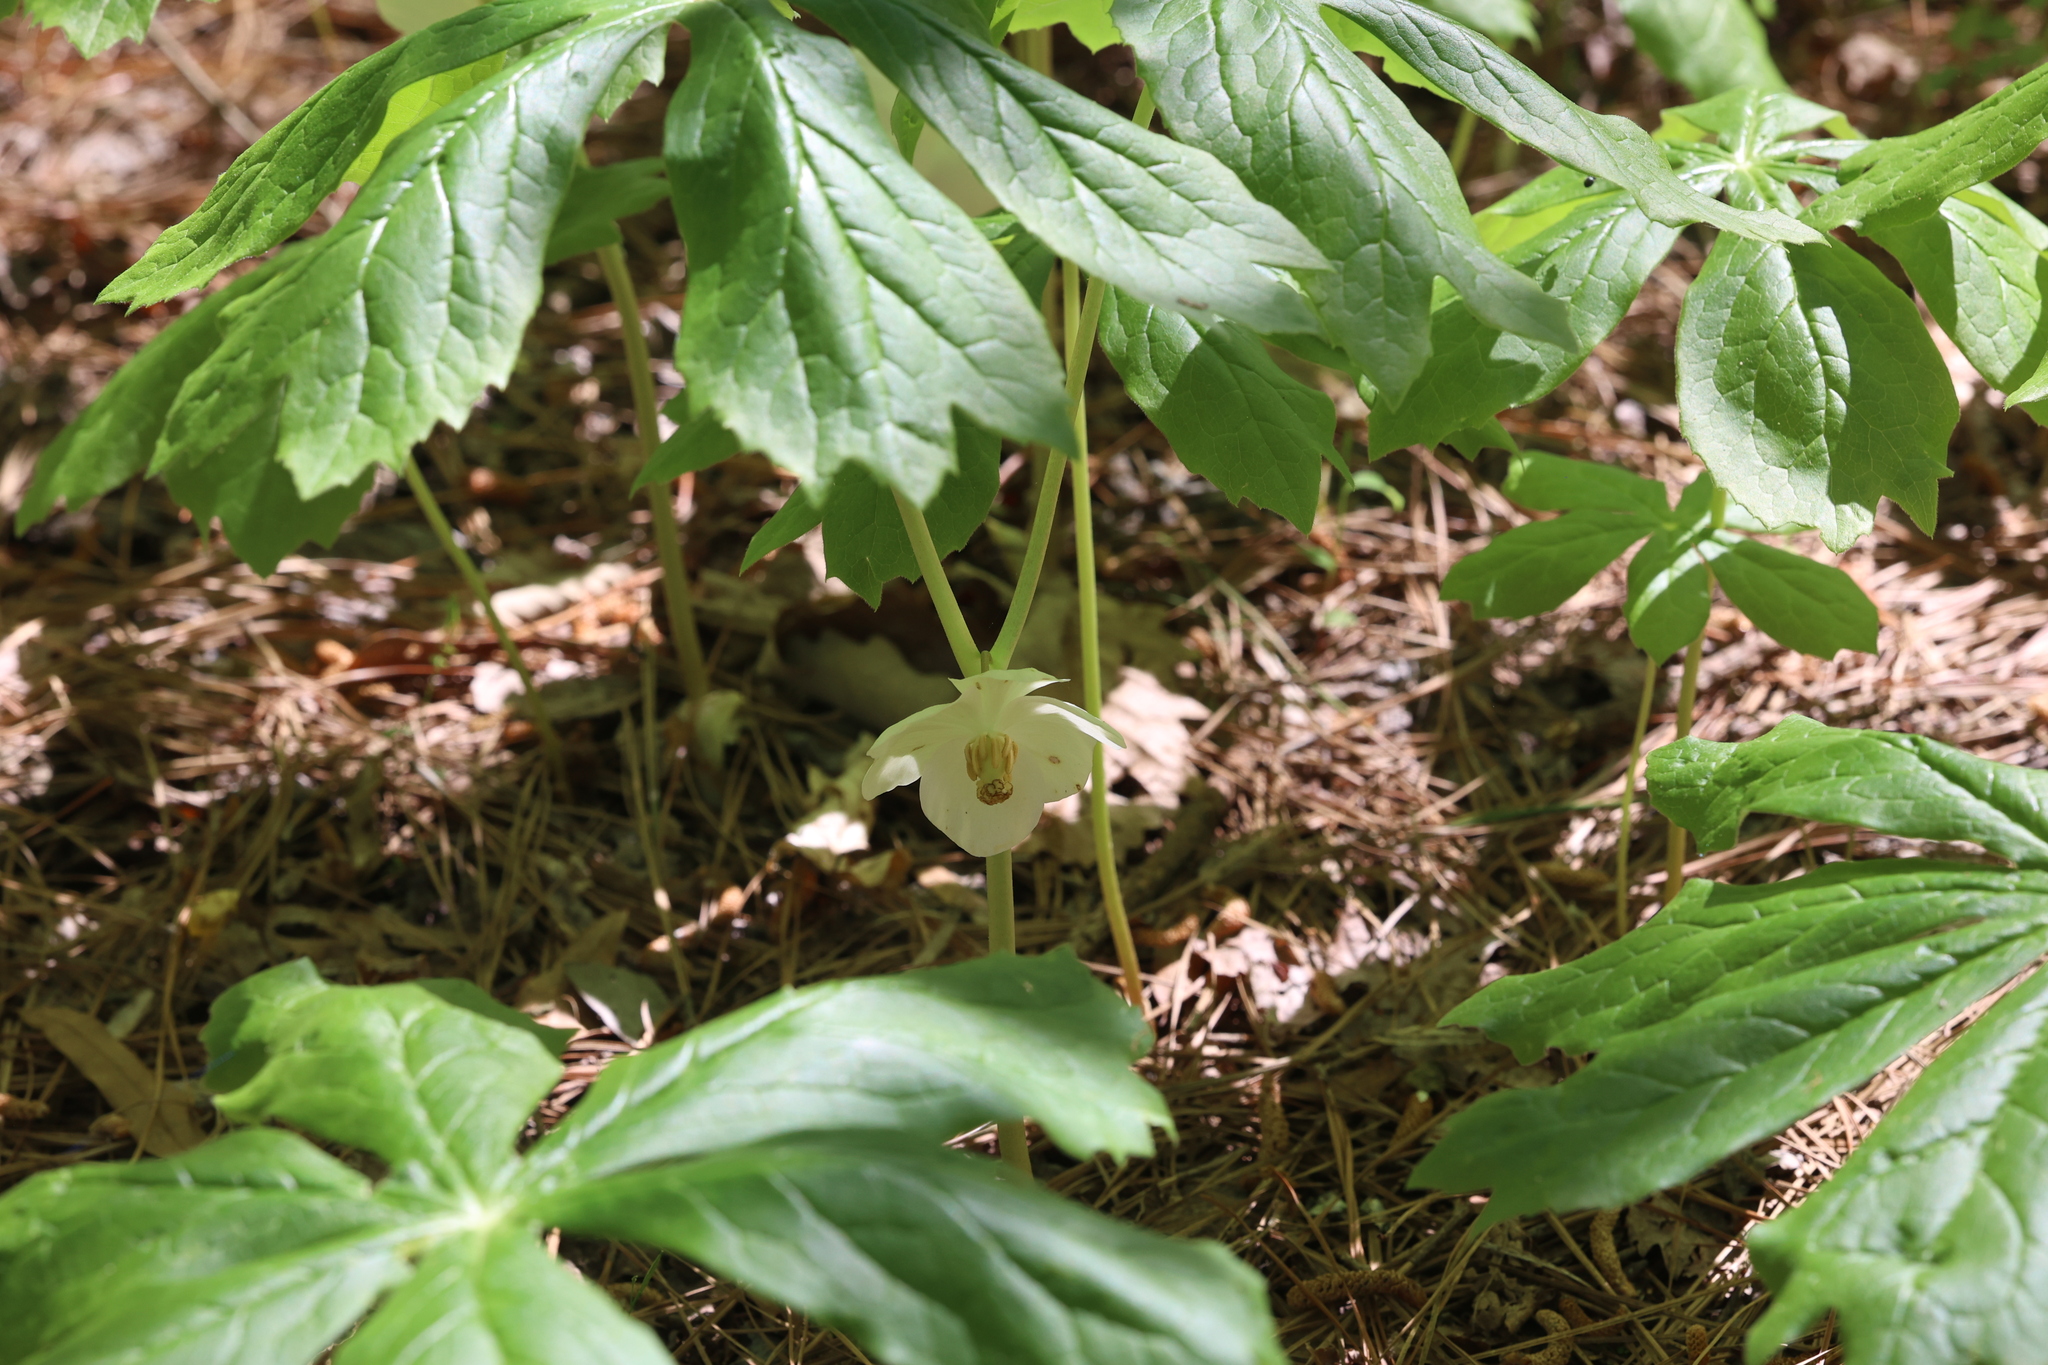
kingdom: Plantae
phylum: Tracheophyta
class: Magnoliopsida
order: Ranunculales
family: Berberidaceae
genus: Podophyllum
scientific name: Podophyllum peltatum
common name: Wild mandrake
